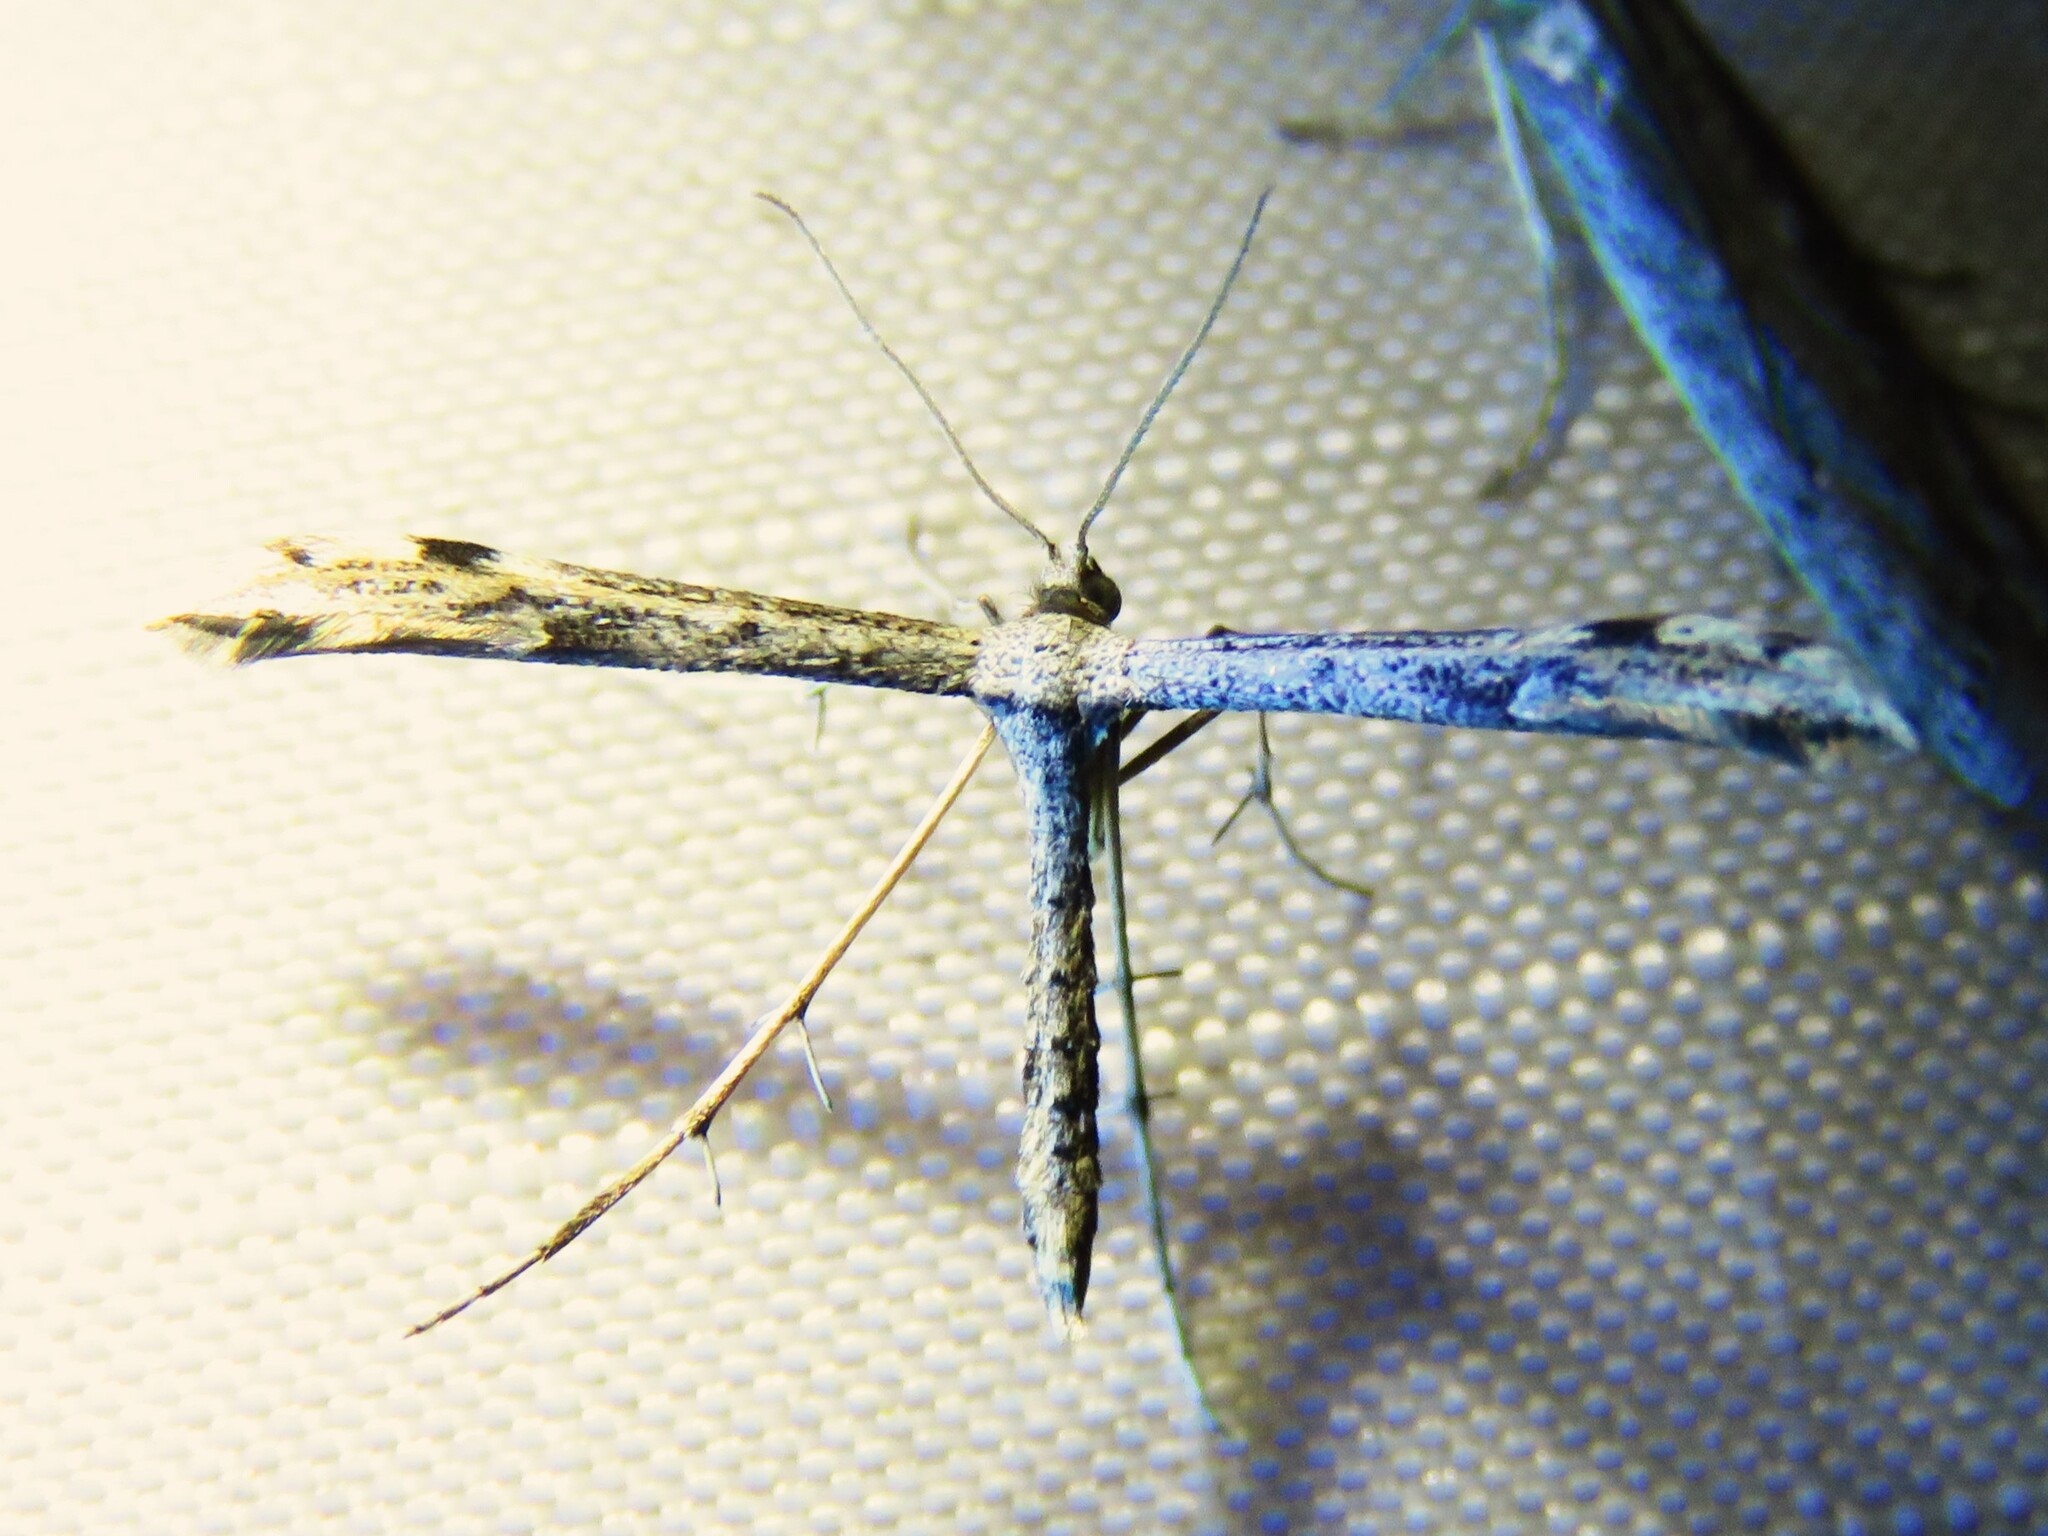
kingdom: Animalia
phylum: Arthropoda
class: Insecta
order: Lepidoptera
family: Pterophoridae
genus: Adaina
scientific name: Adaina ambrosiae
